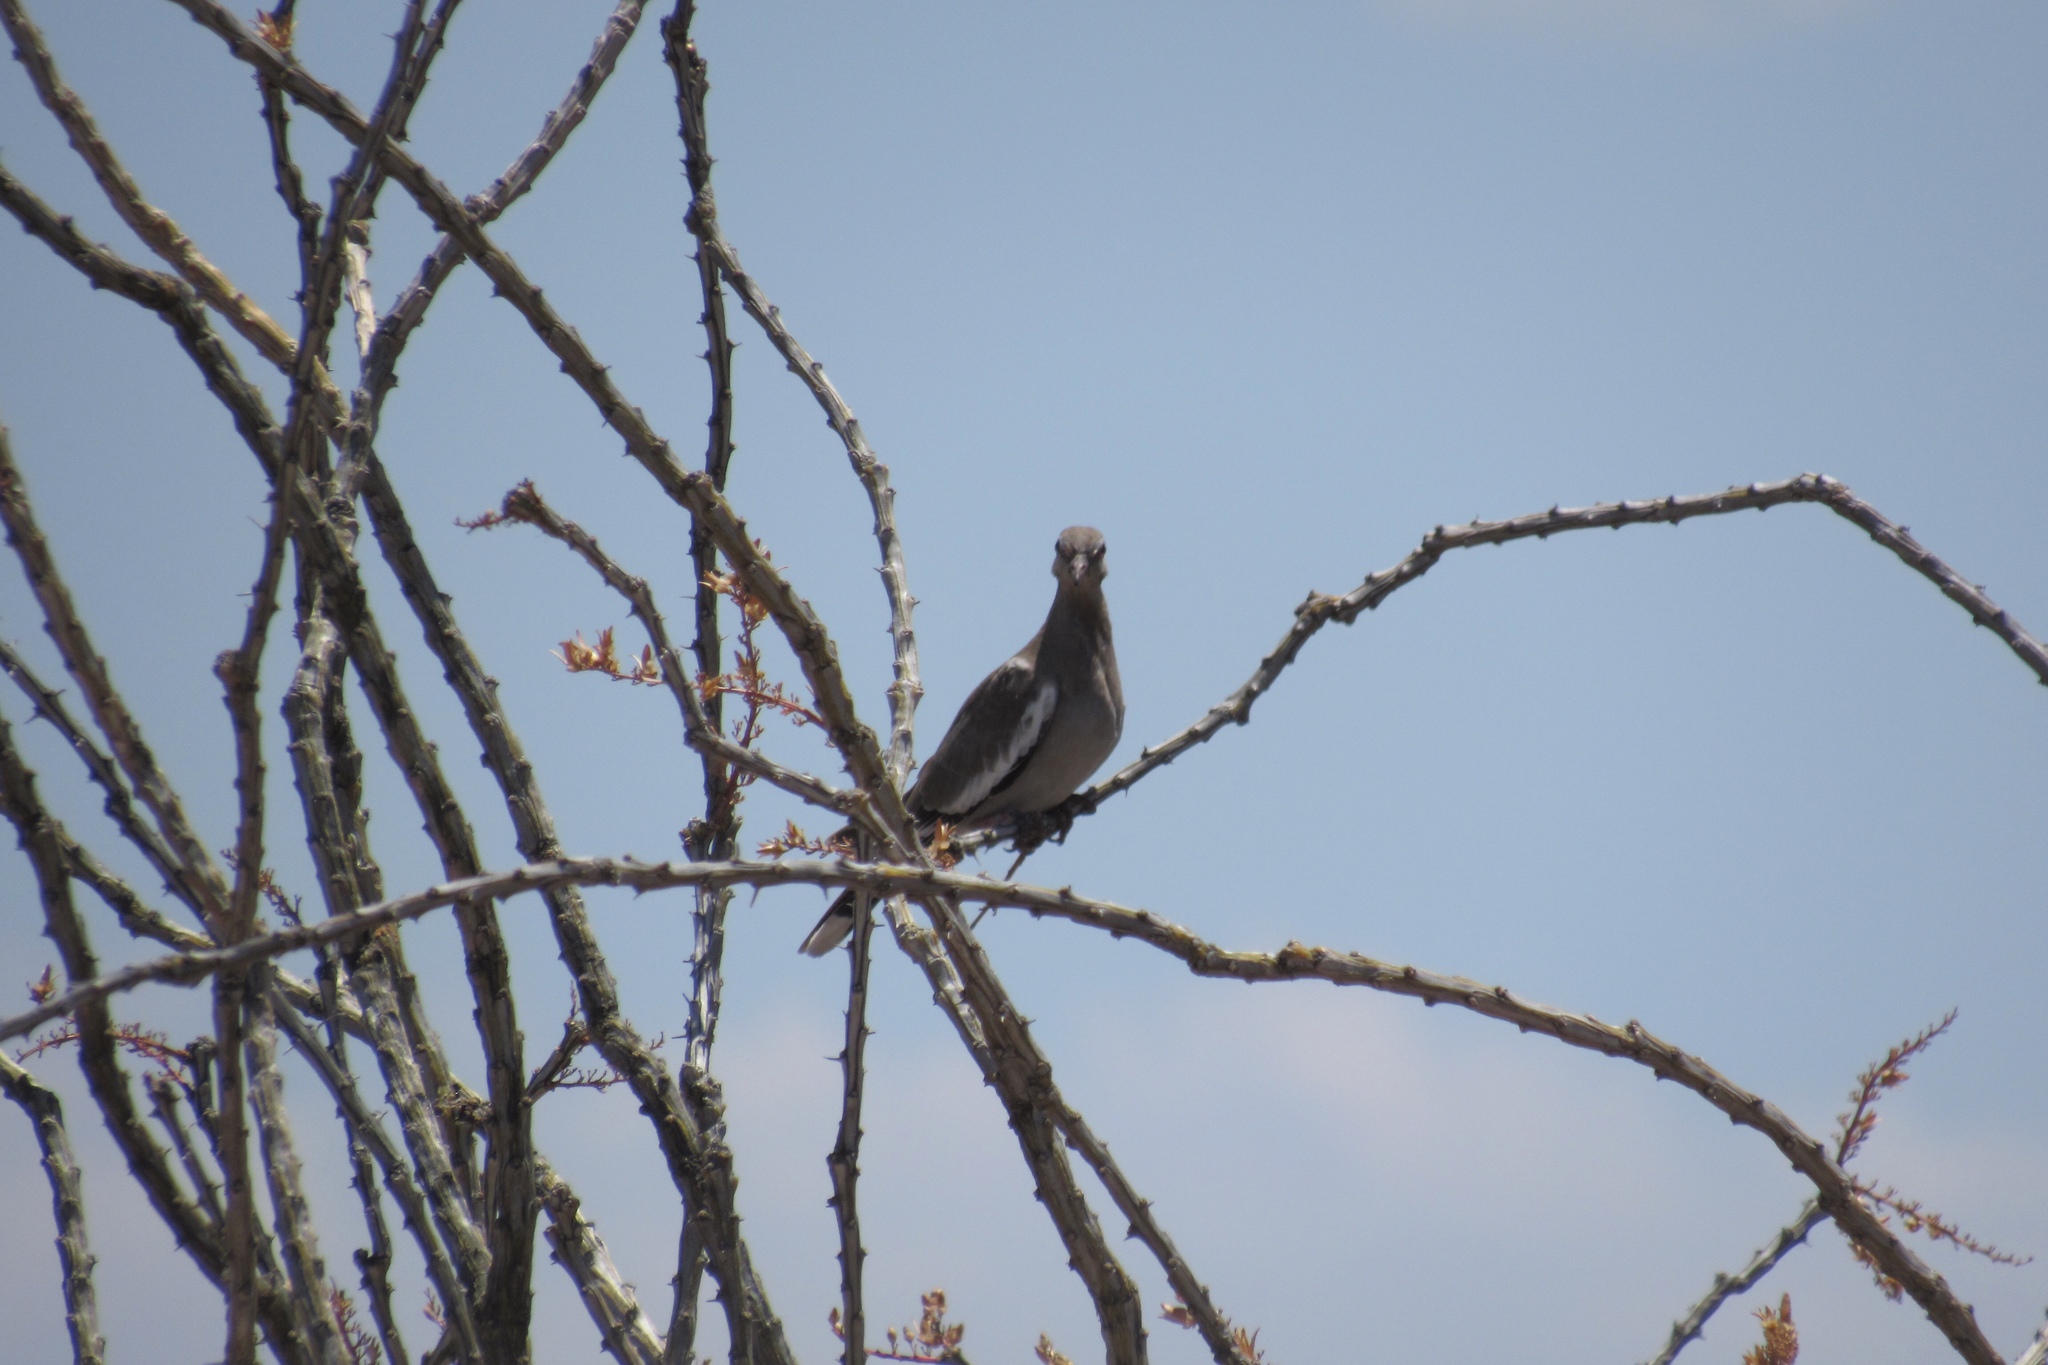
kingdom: Animalia
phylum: Chordata
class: Aves
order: Columbiformes
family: Columbidae
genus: Zenaida
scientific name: Zenaida asiatica
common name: White-winged dove
